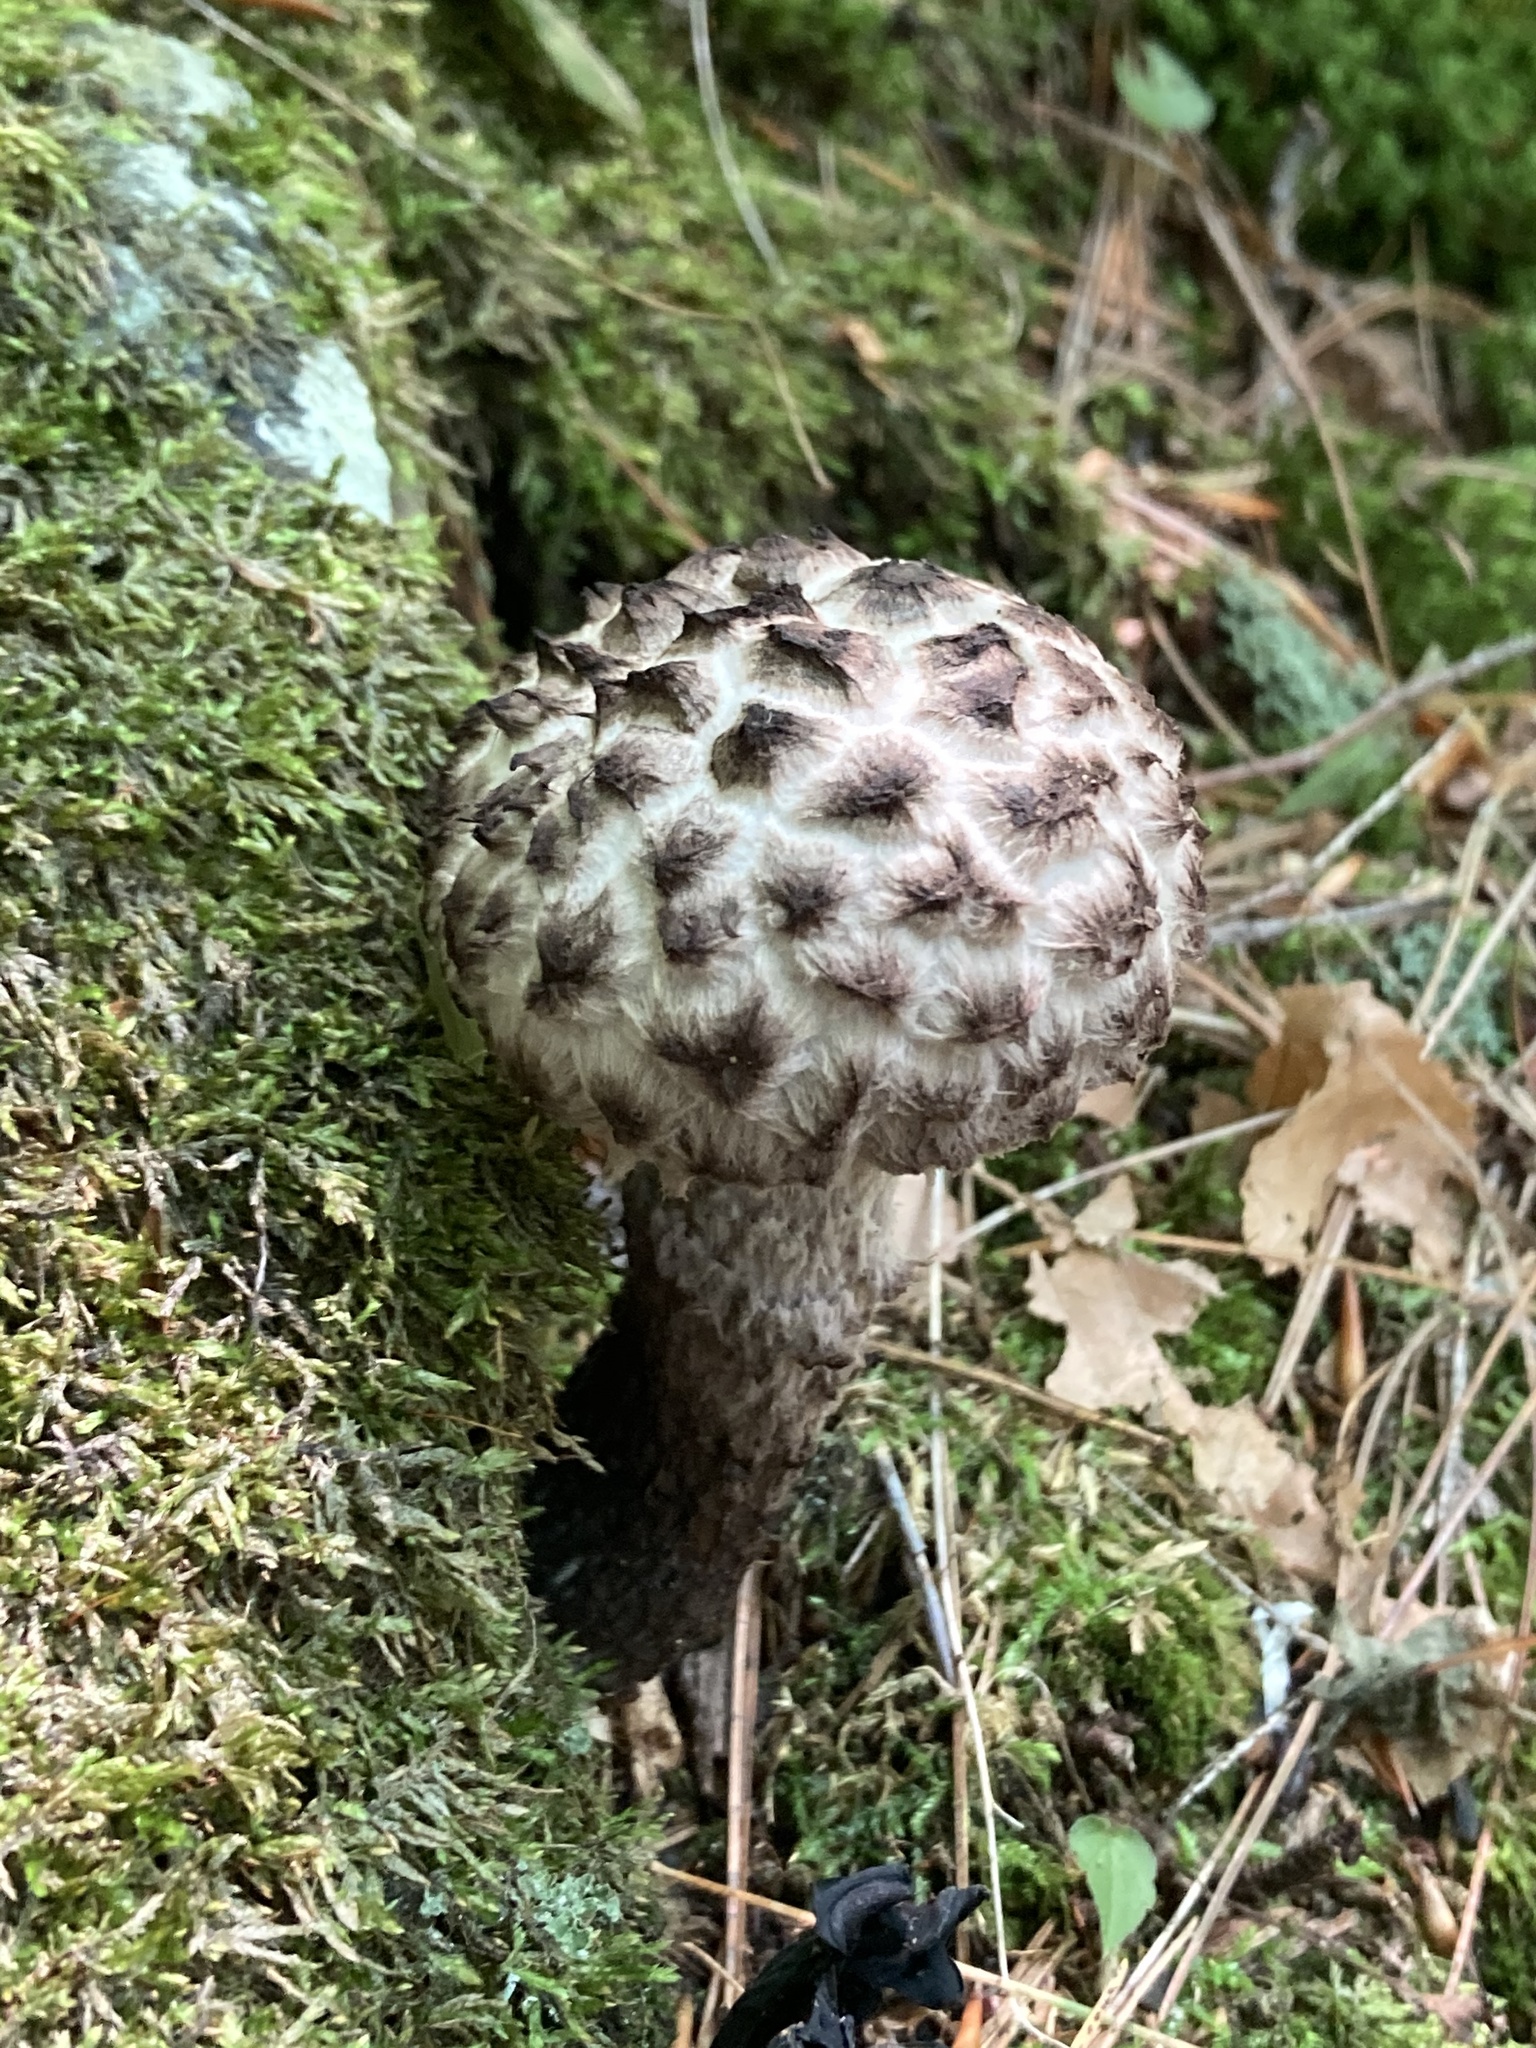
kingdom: Fungi
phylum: Basidiomycota
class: Agaricomycetes
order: Boletales
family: Boletaceae
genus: Strobilomyces
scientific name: Strobilomyces strobilaceus
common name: Old man of the woods
